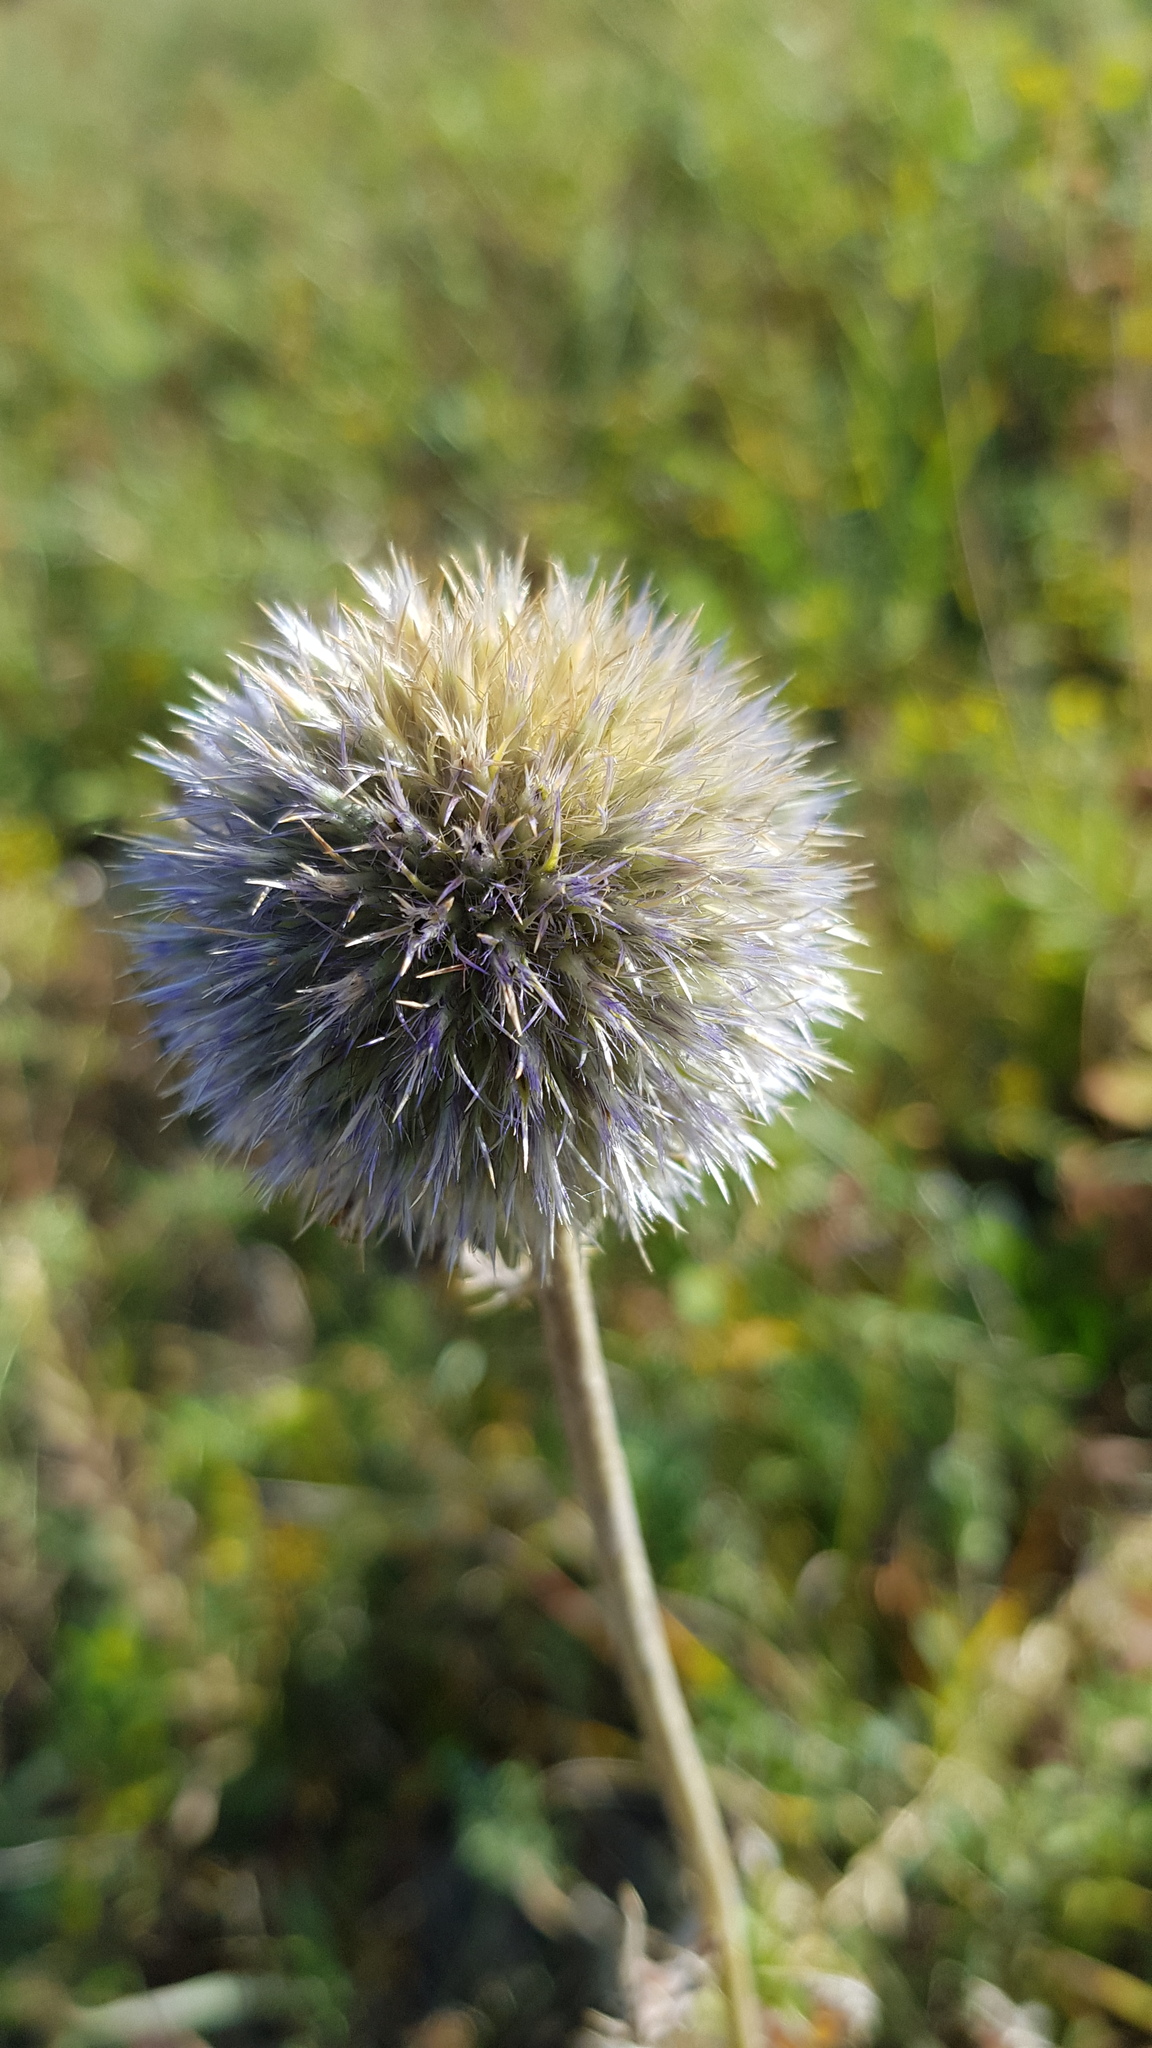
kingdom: Plantae
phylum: Tracheophyta
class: Magnoliopsida
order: Asterales
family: Asteraceae
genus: Echinops
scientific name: Echinops davuricus
